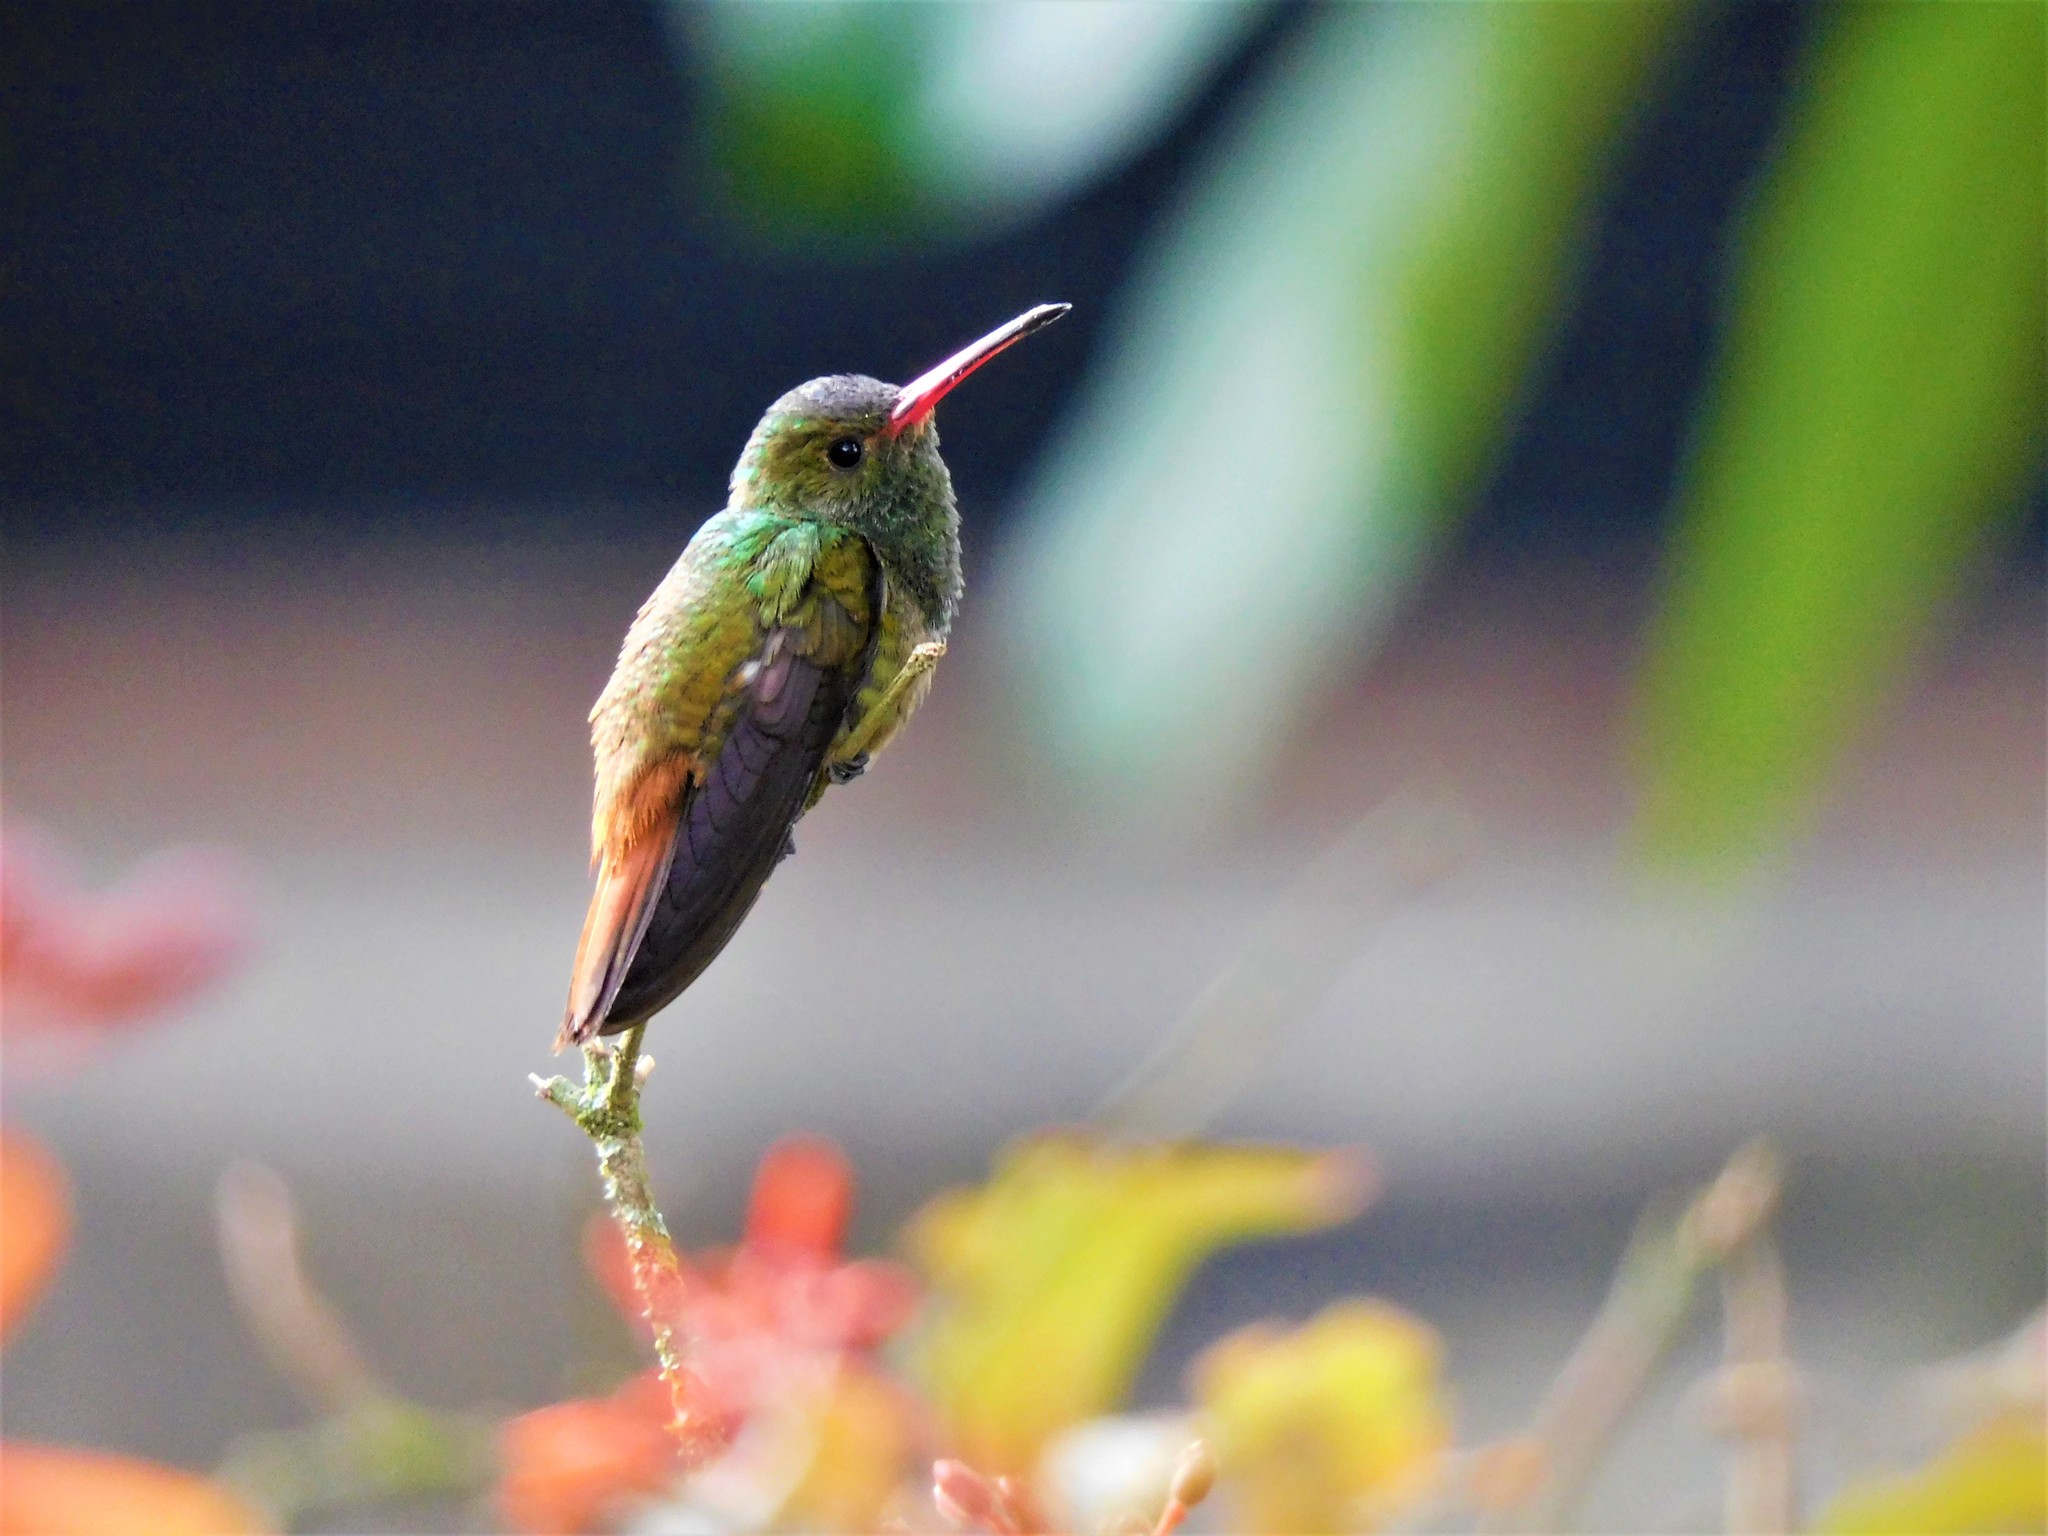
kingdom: Animalia
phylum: Chordata
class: Aves
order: Apodiformes
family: Trochilidae
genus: Amazilia
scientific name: Amazilia tzacatl
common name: Rufous-tailed hummingbird
